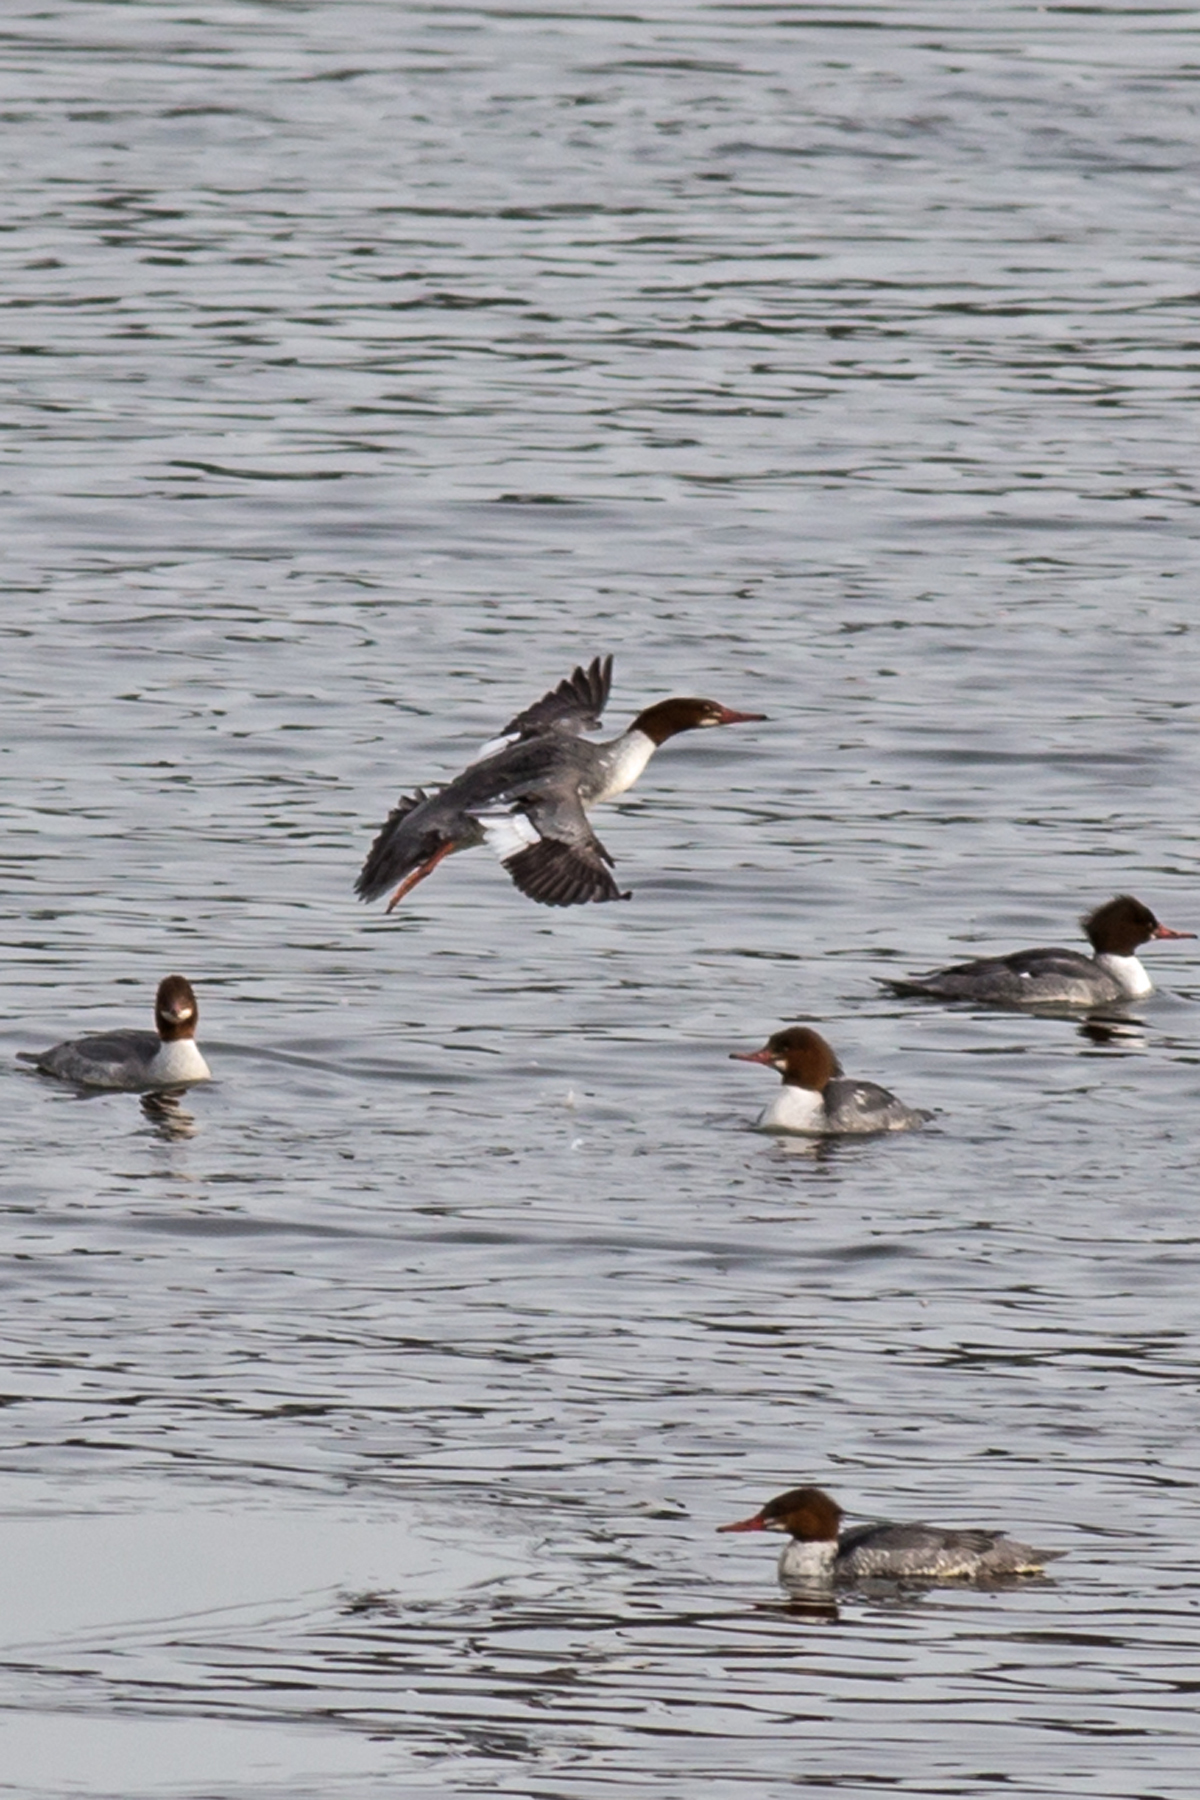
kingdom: Animalia
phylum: Chordata
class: Aves
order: Anseriformes
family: Anatidae
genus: Mergus
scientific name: Mergus merganser
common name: Common merganser
